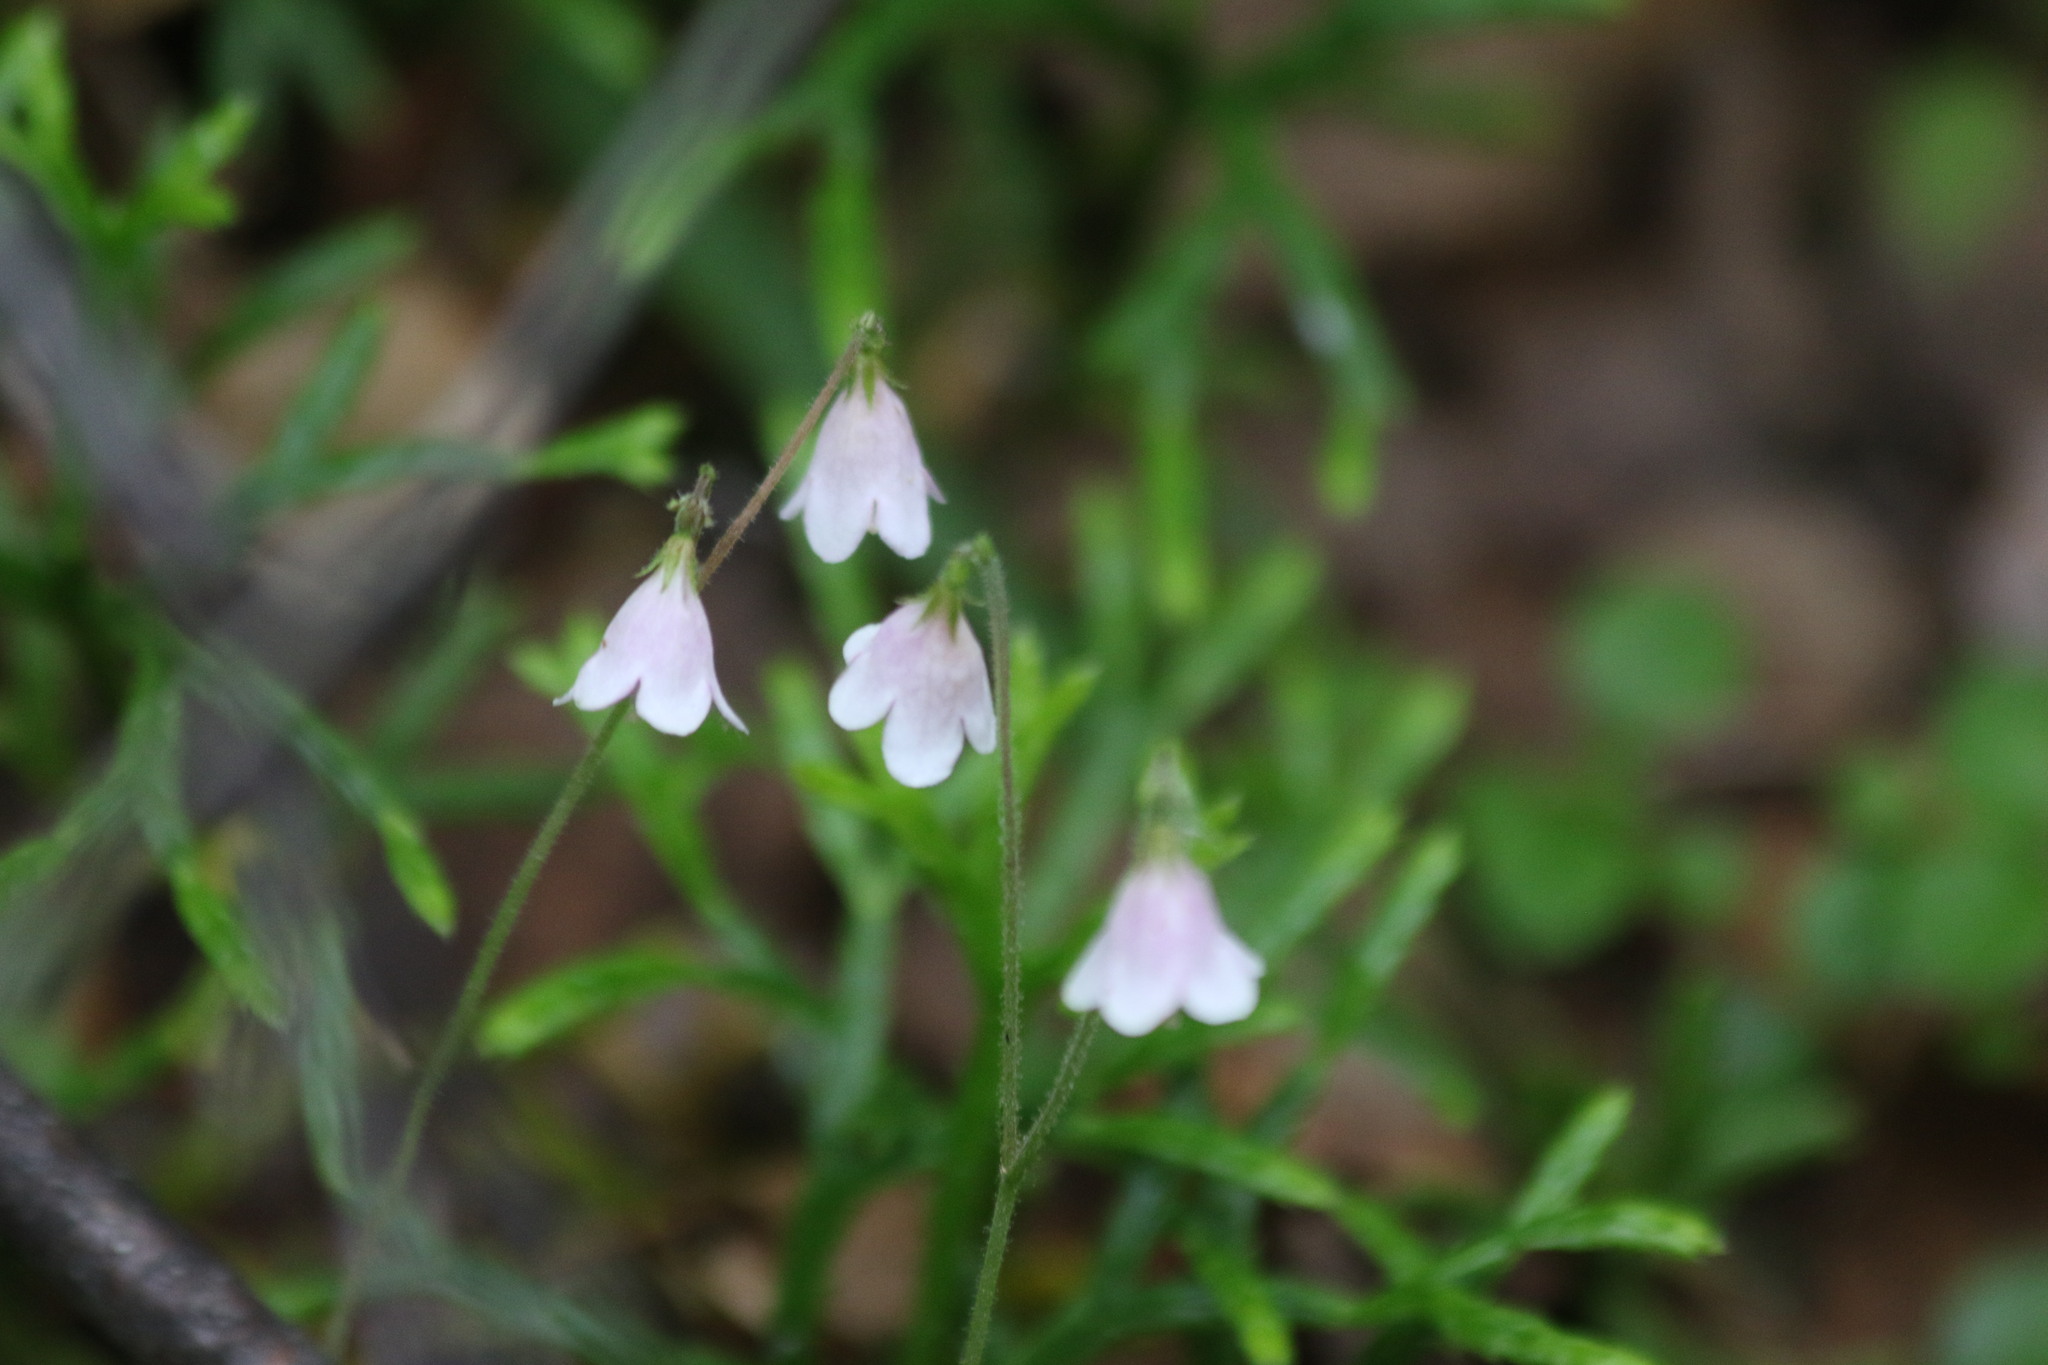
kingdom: Plantae
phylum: Tracheophyta
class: Magnoliopsida
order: Dipsacales
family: Caprifoliaceae
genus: Linnaea
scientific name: Linnaea borealis
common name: Twinflower
